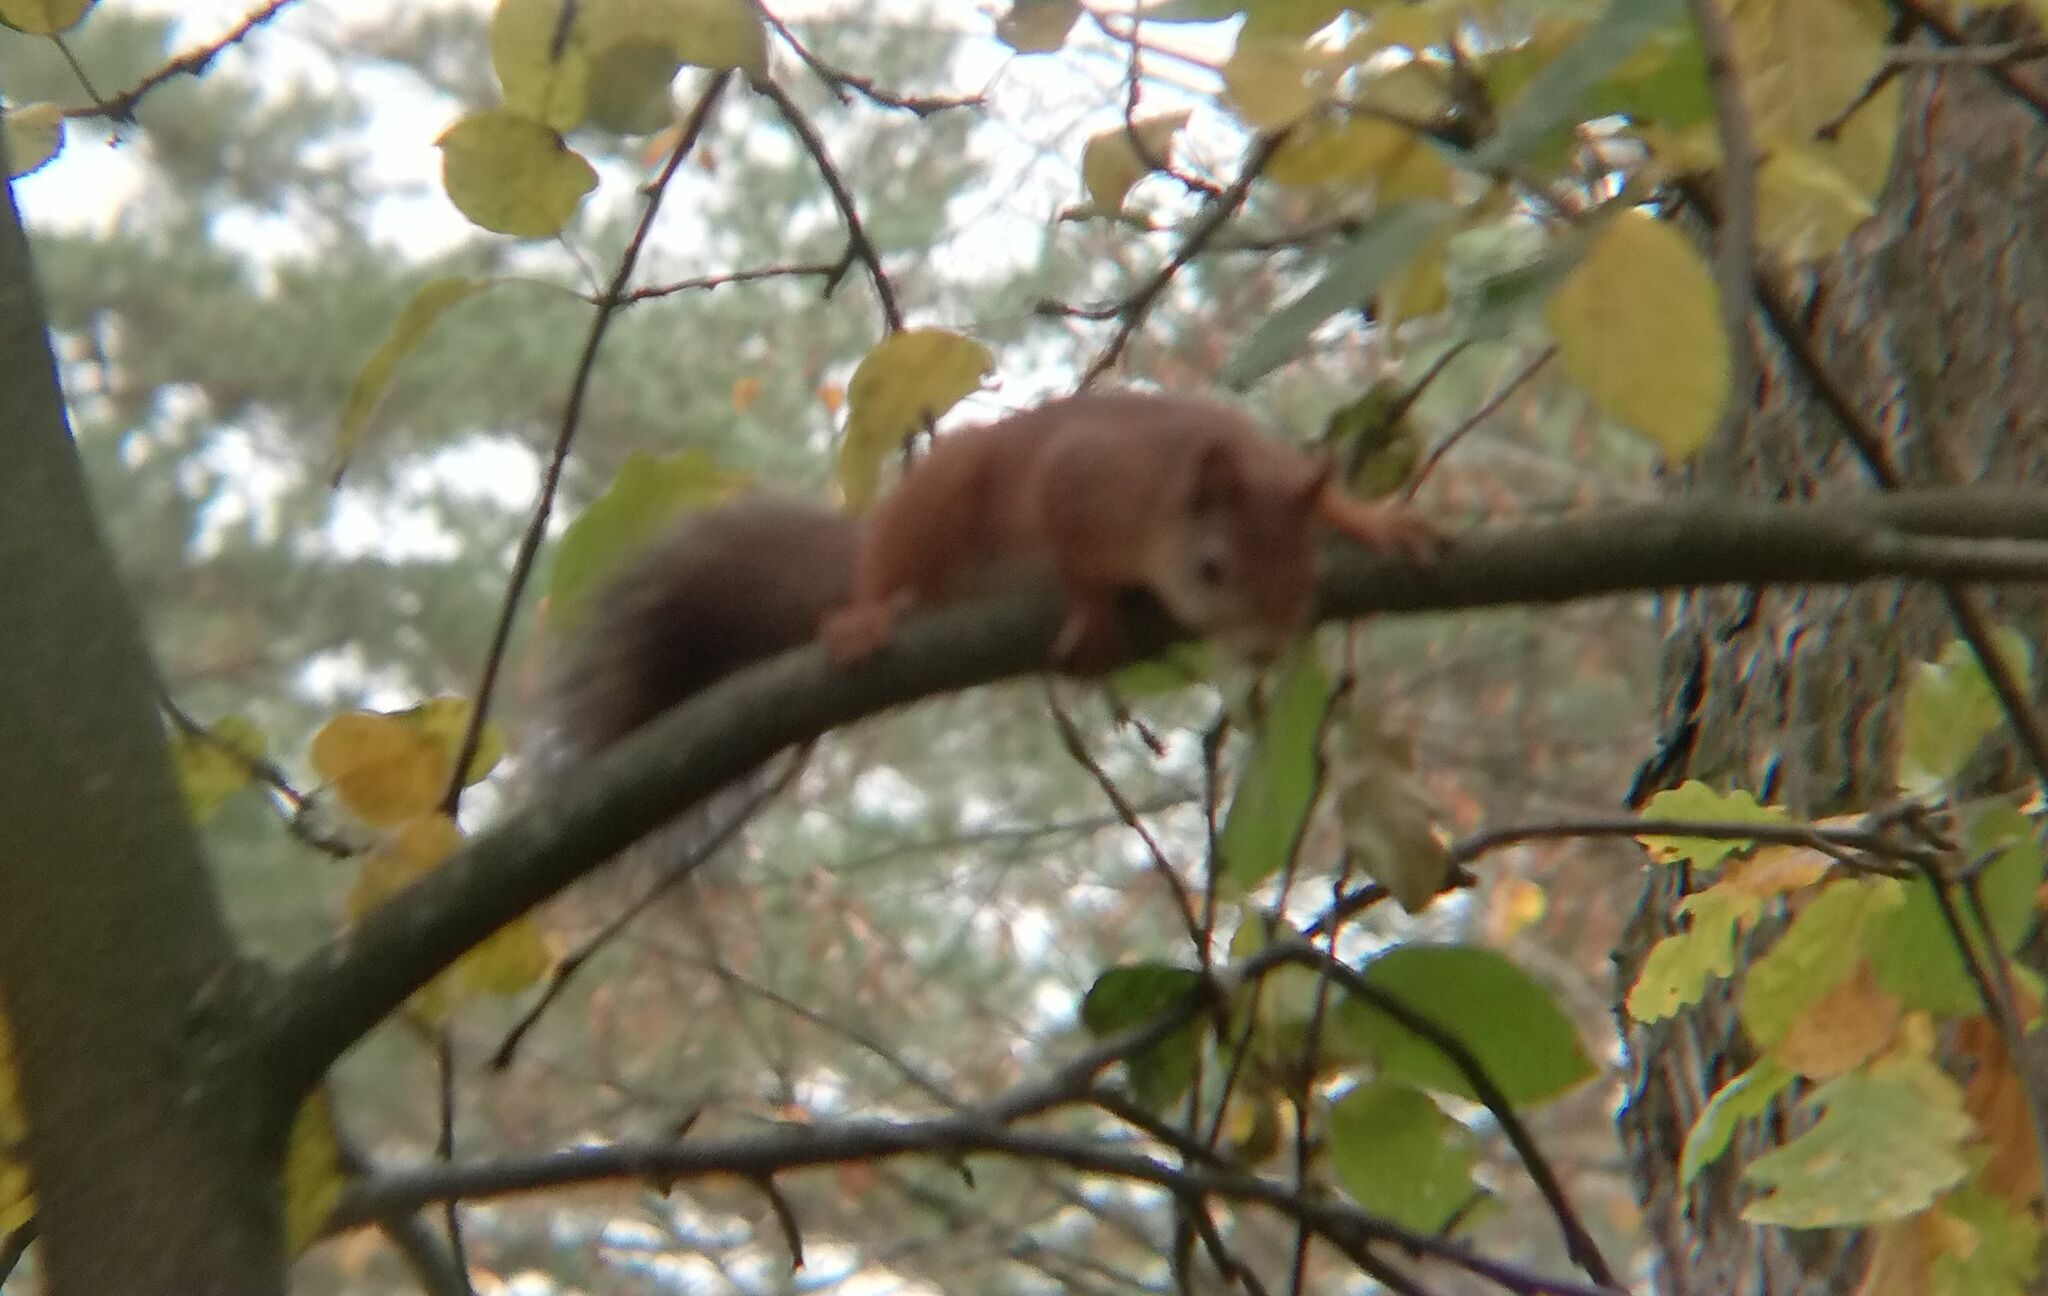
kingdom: Animalia
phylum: Chordata
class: Mammalia
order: Rodentia
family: Sciuridae
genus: Sciurus
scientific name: Sciurus vulgaris
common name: Eurasian red squirrel
